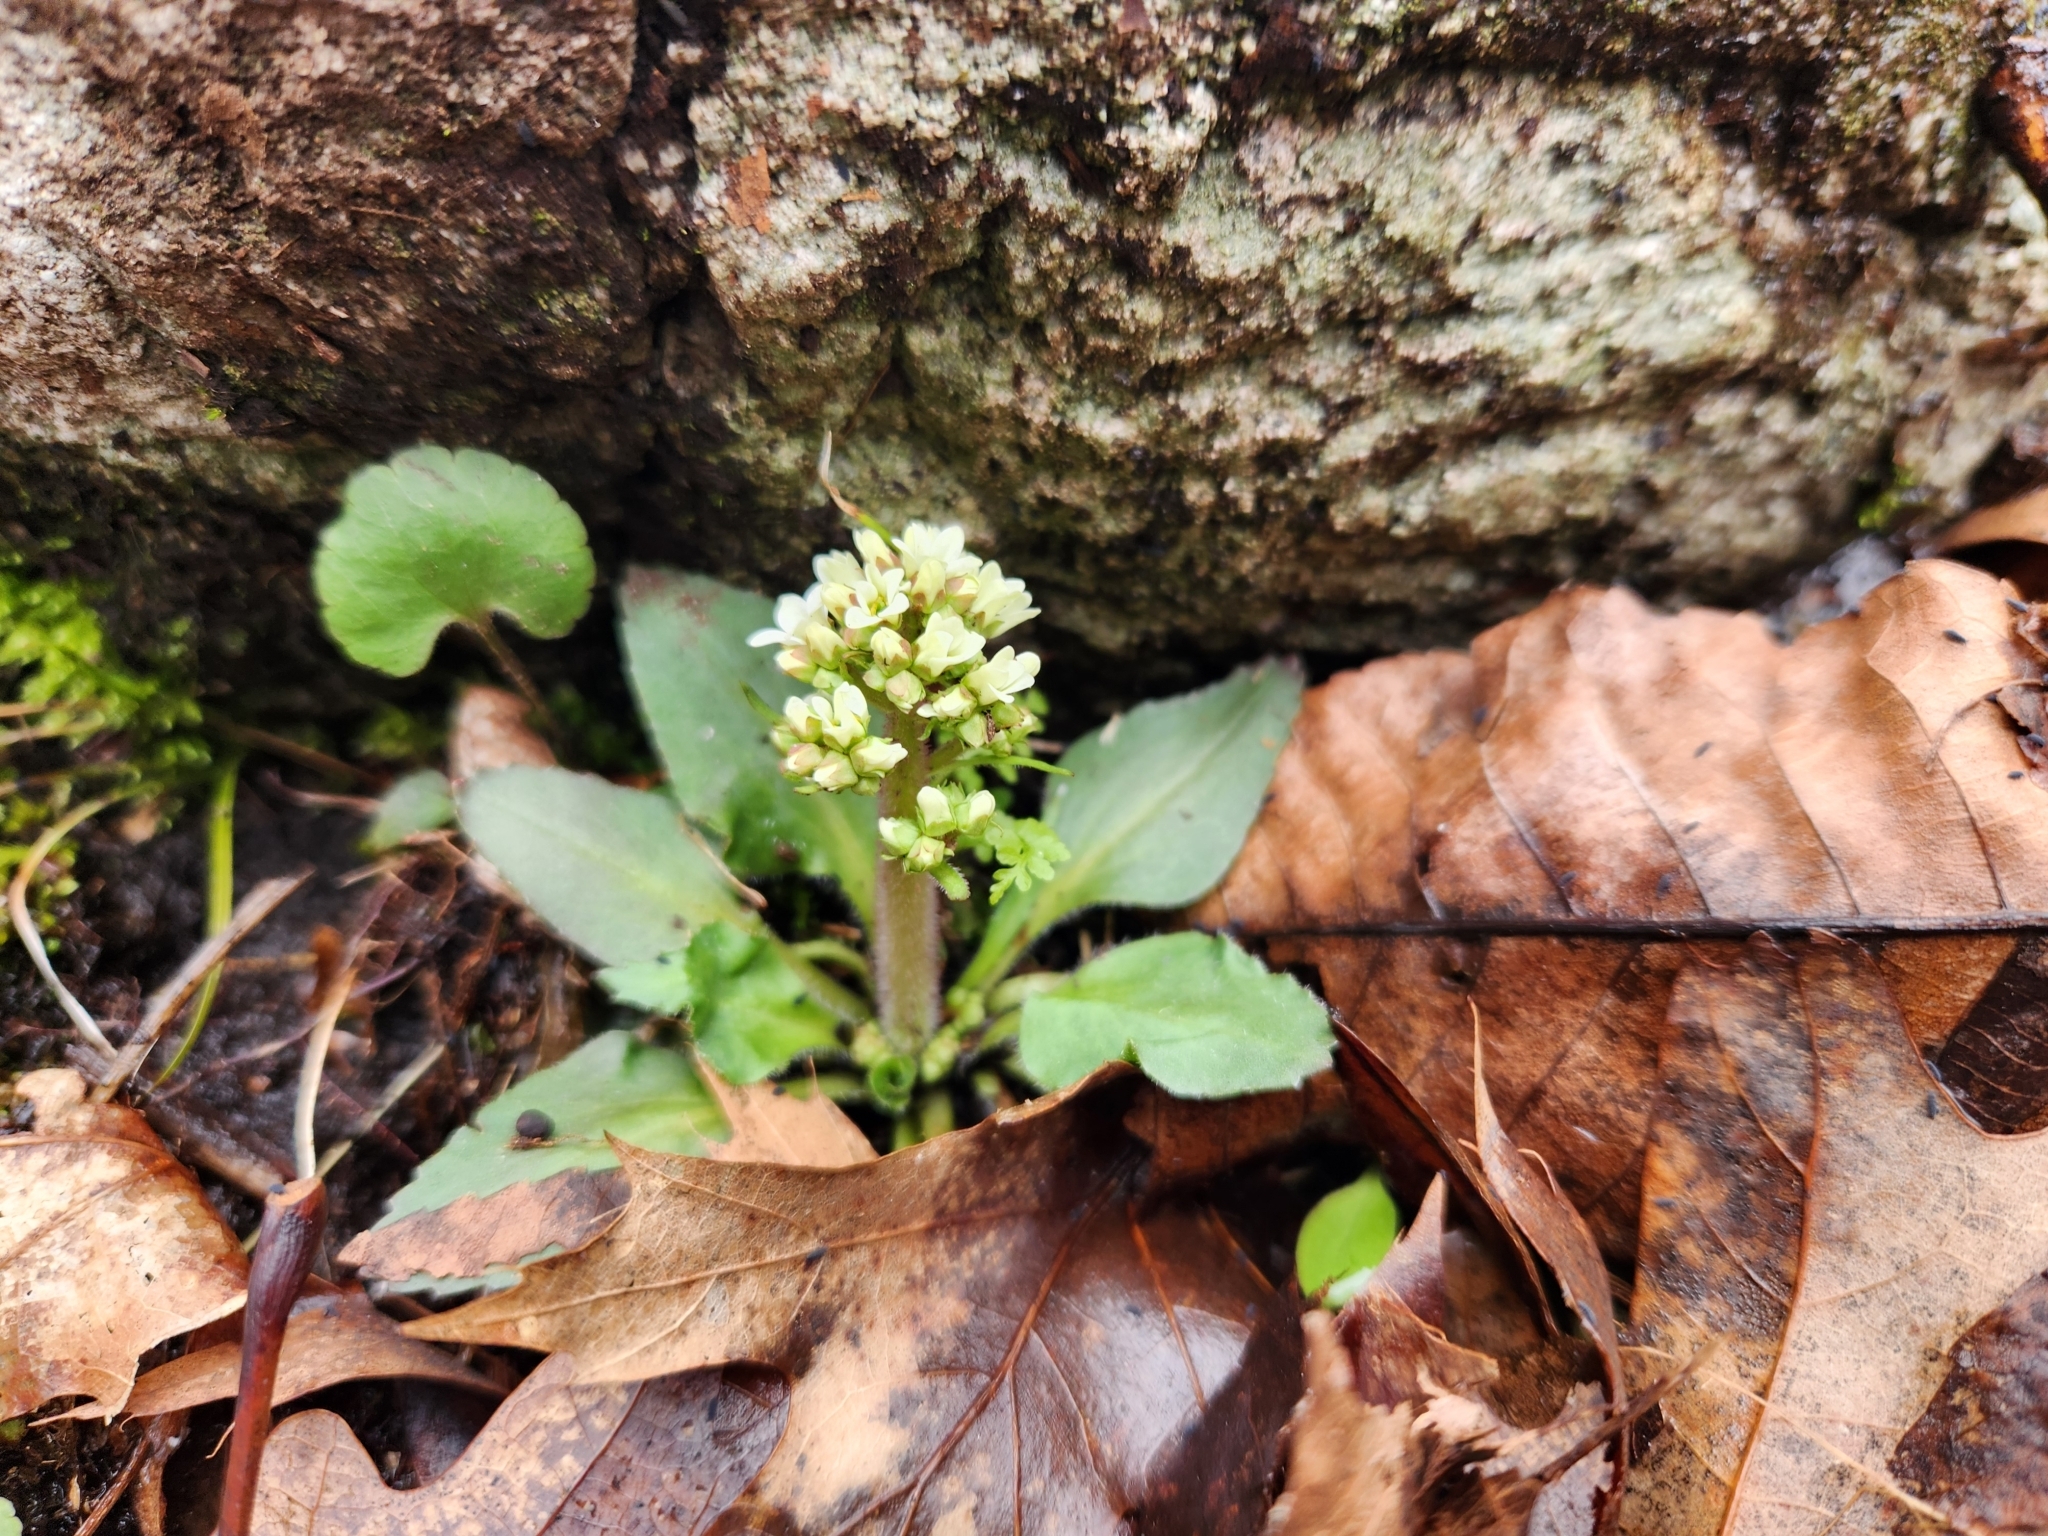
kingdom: Plantae
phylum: Tracheophyta
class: Magnoliopsida
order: Saxifragales
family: Saxifragaceae
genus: Micranthes
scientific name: Micranthes virginiensis
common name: Early saxifrage
